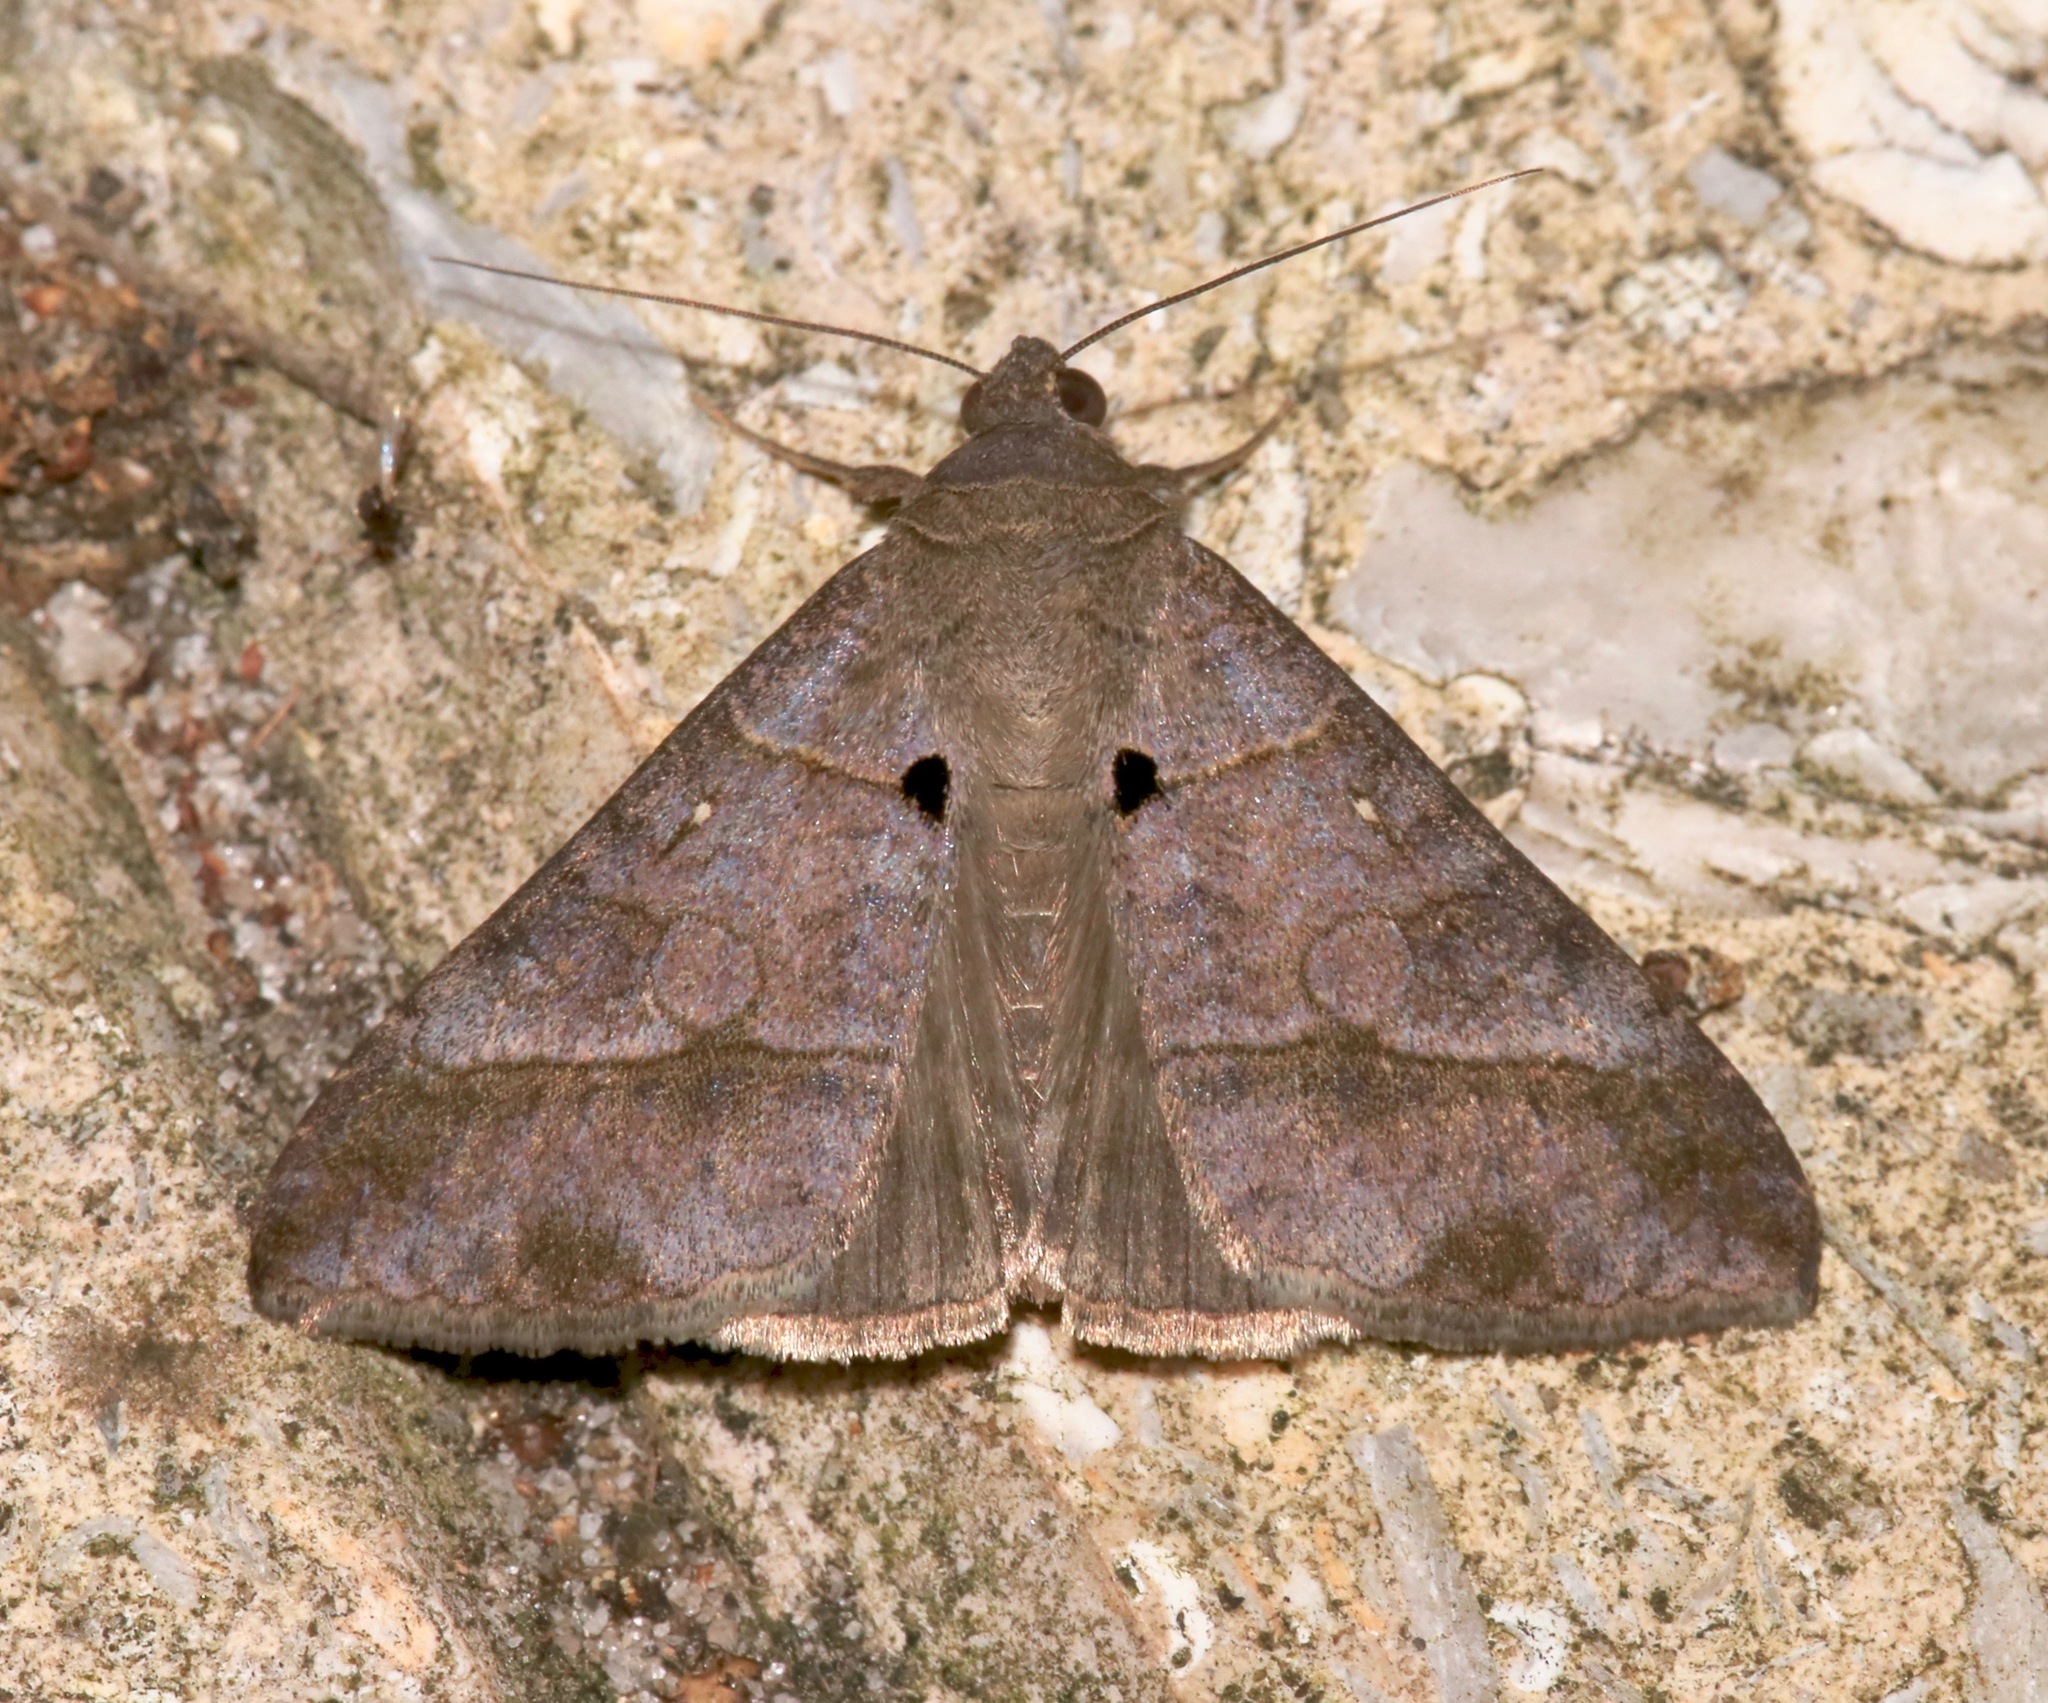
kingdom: Animalia
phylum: Arthropoda
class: Insecta
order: Lepidoptera
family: Erebidae
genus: Mocis
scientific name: Mocis latipes
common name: Striped grass looper
